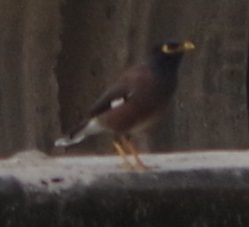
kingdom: Animalia
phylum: Chordata
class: Aves
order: Passeriformes
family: Sturnidae
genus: Acridotheres
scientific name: Acridotheres tristis
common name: Common myna
